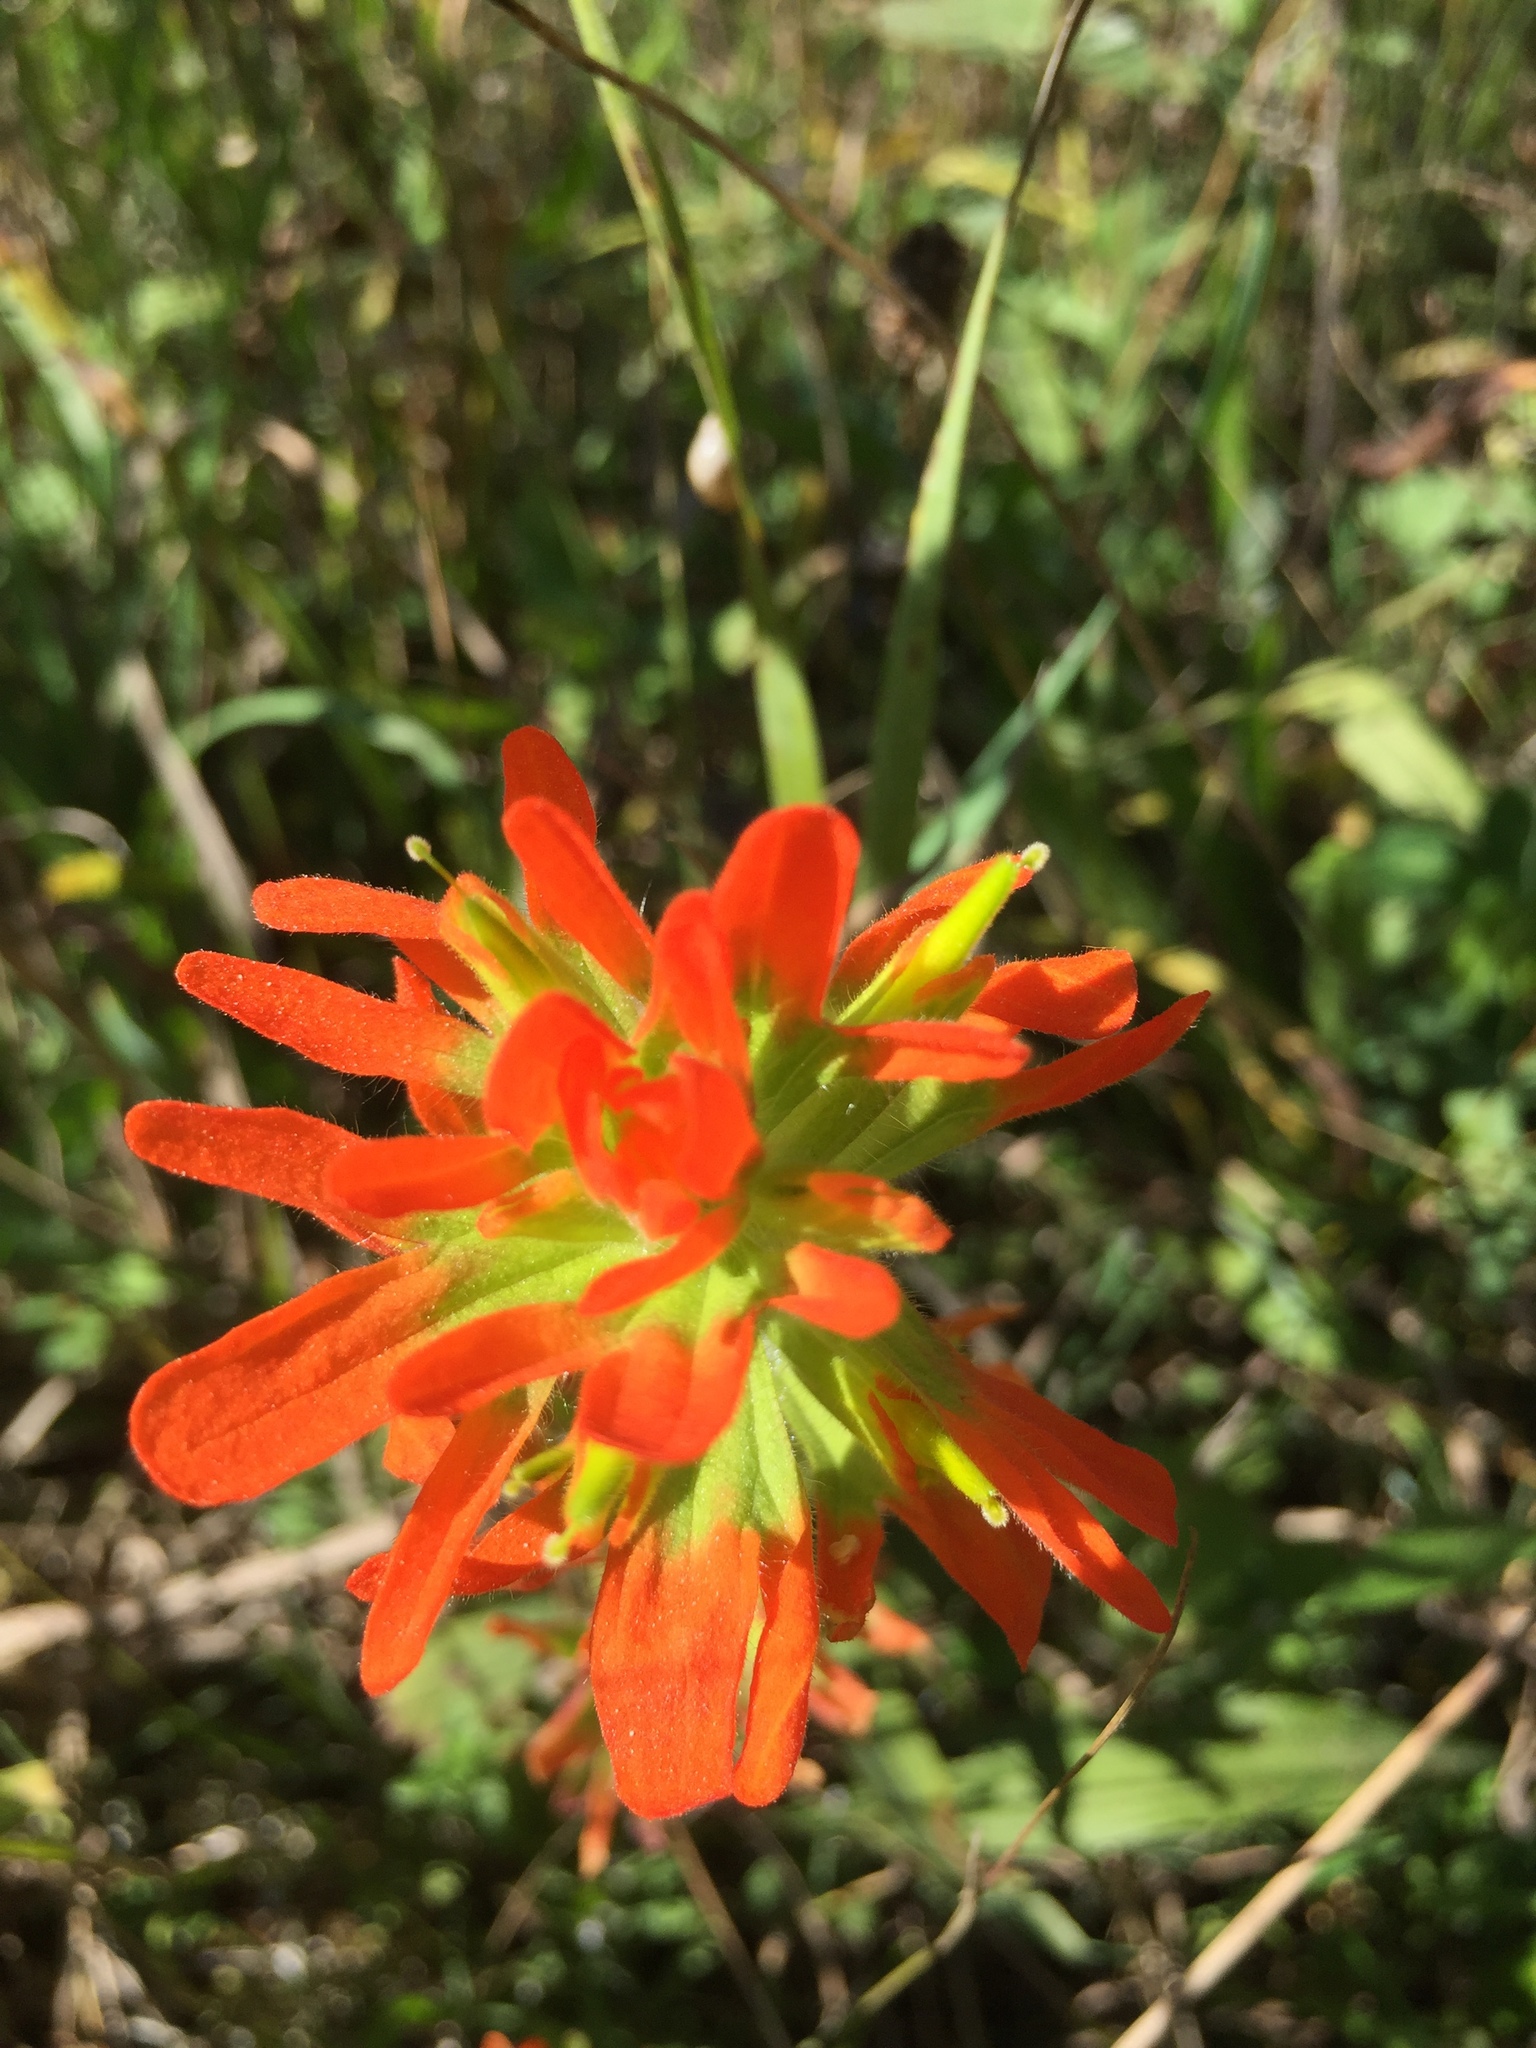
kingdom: Plantae
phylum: Tracheophyta
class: Magnoliopsida
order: Lamiales
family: Orobanchaceae
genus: Castilleja
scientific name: Castilleja coccinea
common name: Scarlet paintbrush
